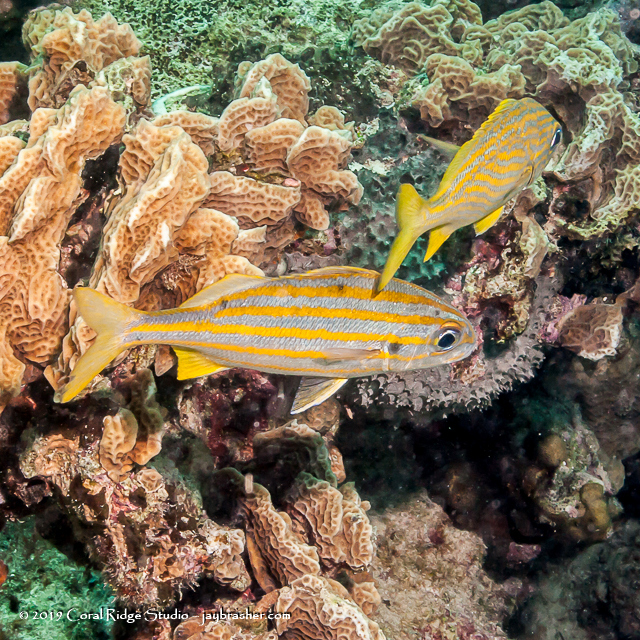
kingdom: Animalia
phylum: Chordata
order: Perciformes
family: Haemulidae
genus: Haemulon
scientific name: Haemulon chrysargyreum
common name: Smallmouth grunt
